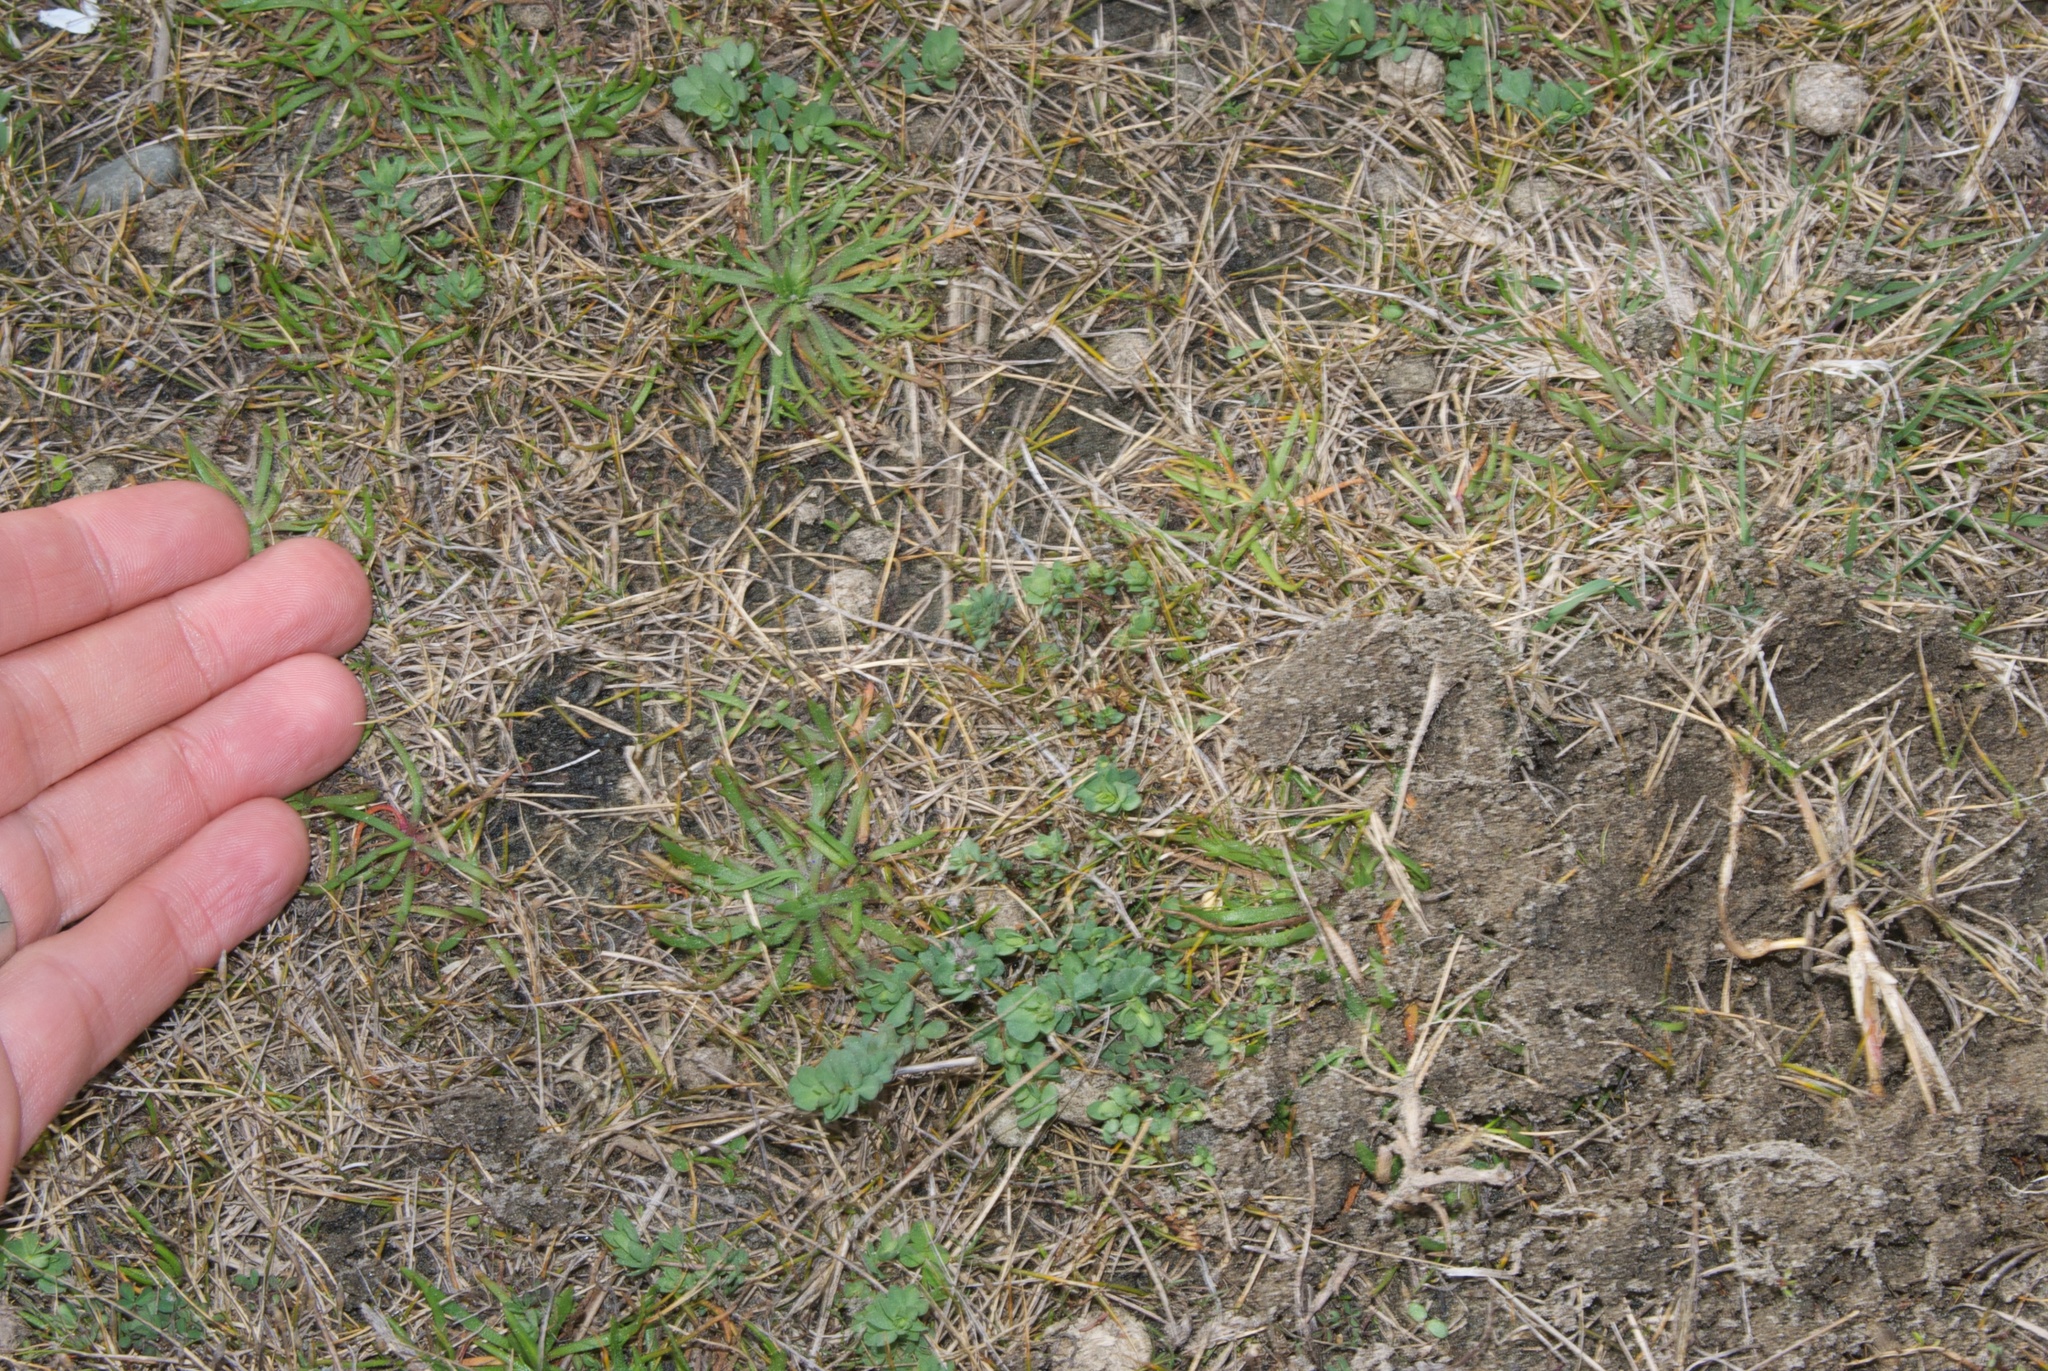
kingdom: Plantae
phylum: Tracheophyta
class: Liliopsida
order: Poales
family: Poaceae
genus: Zoysia
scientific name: Zoysia minima
